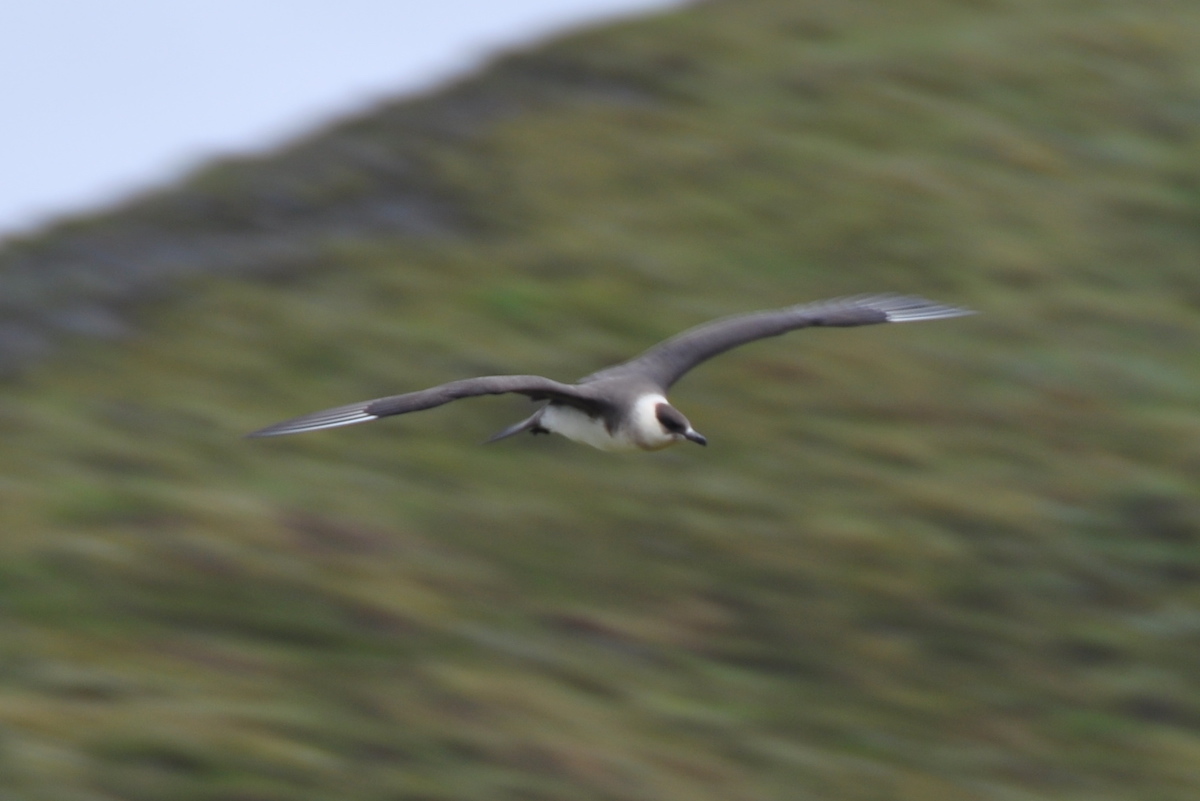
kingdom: Animalia
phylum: Chordata
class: Aves
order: Charadriiformes
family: Stercorariidae
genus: Stercorarius
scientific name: Stercorarius parasiticus
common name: Parasitic jaeger
